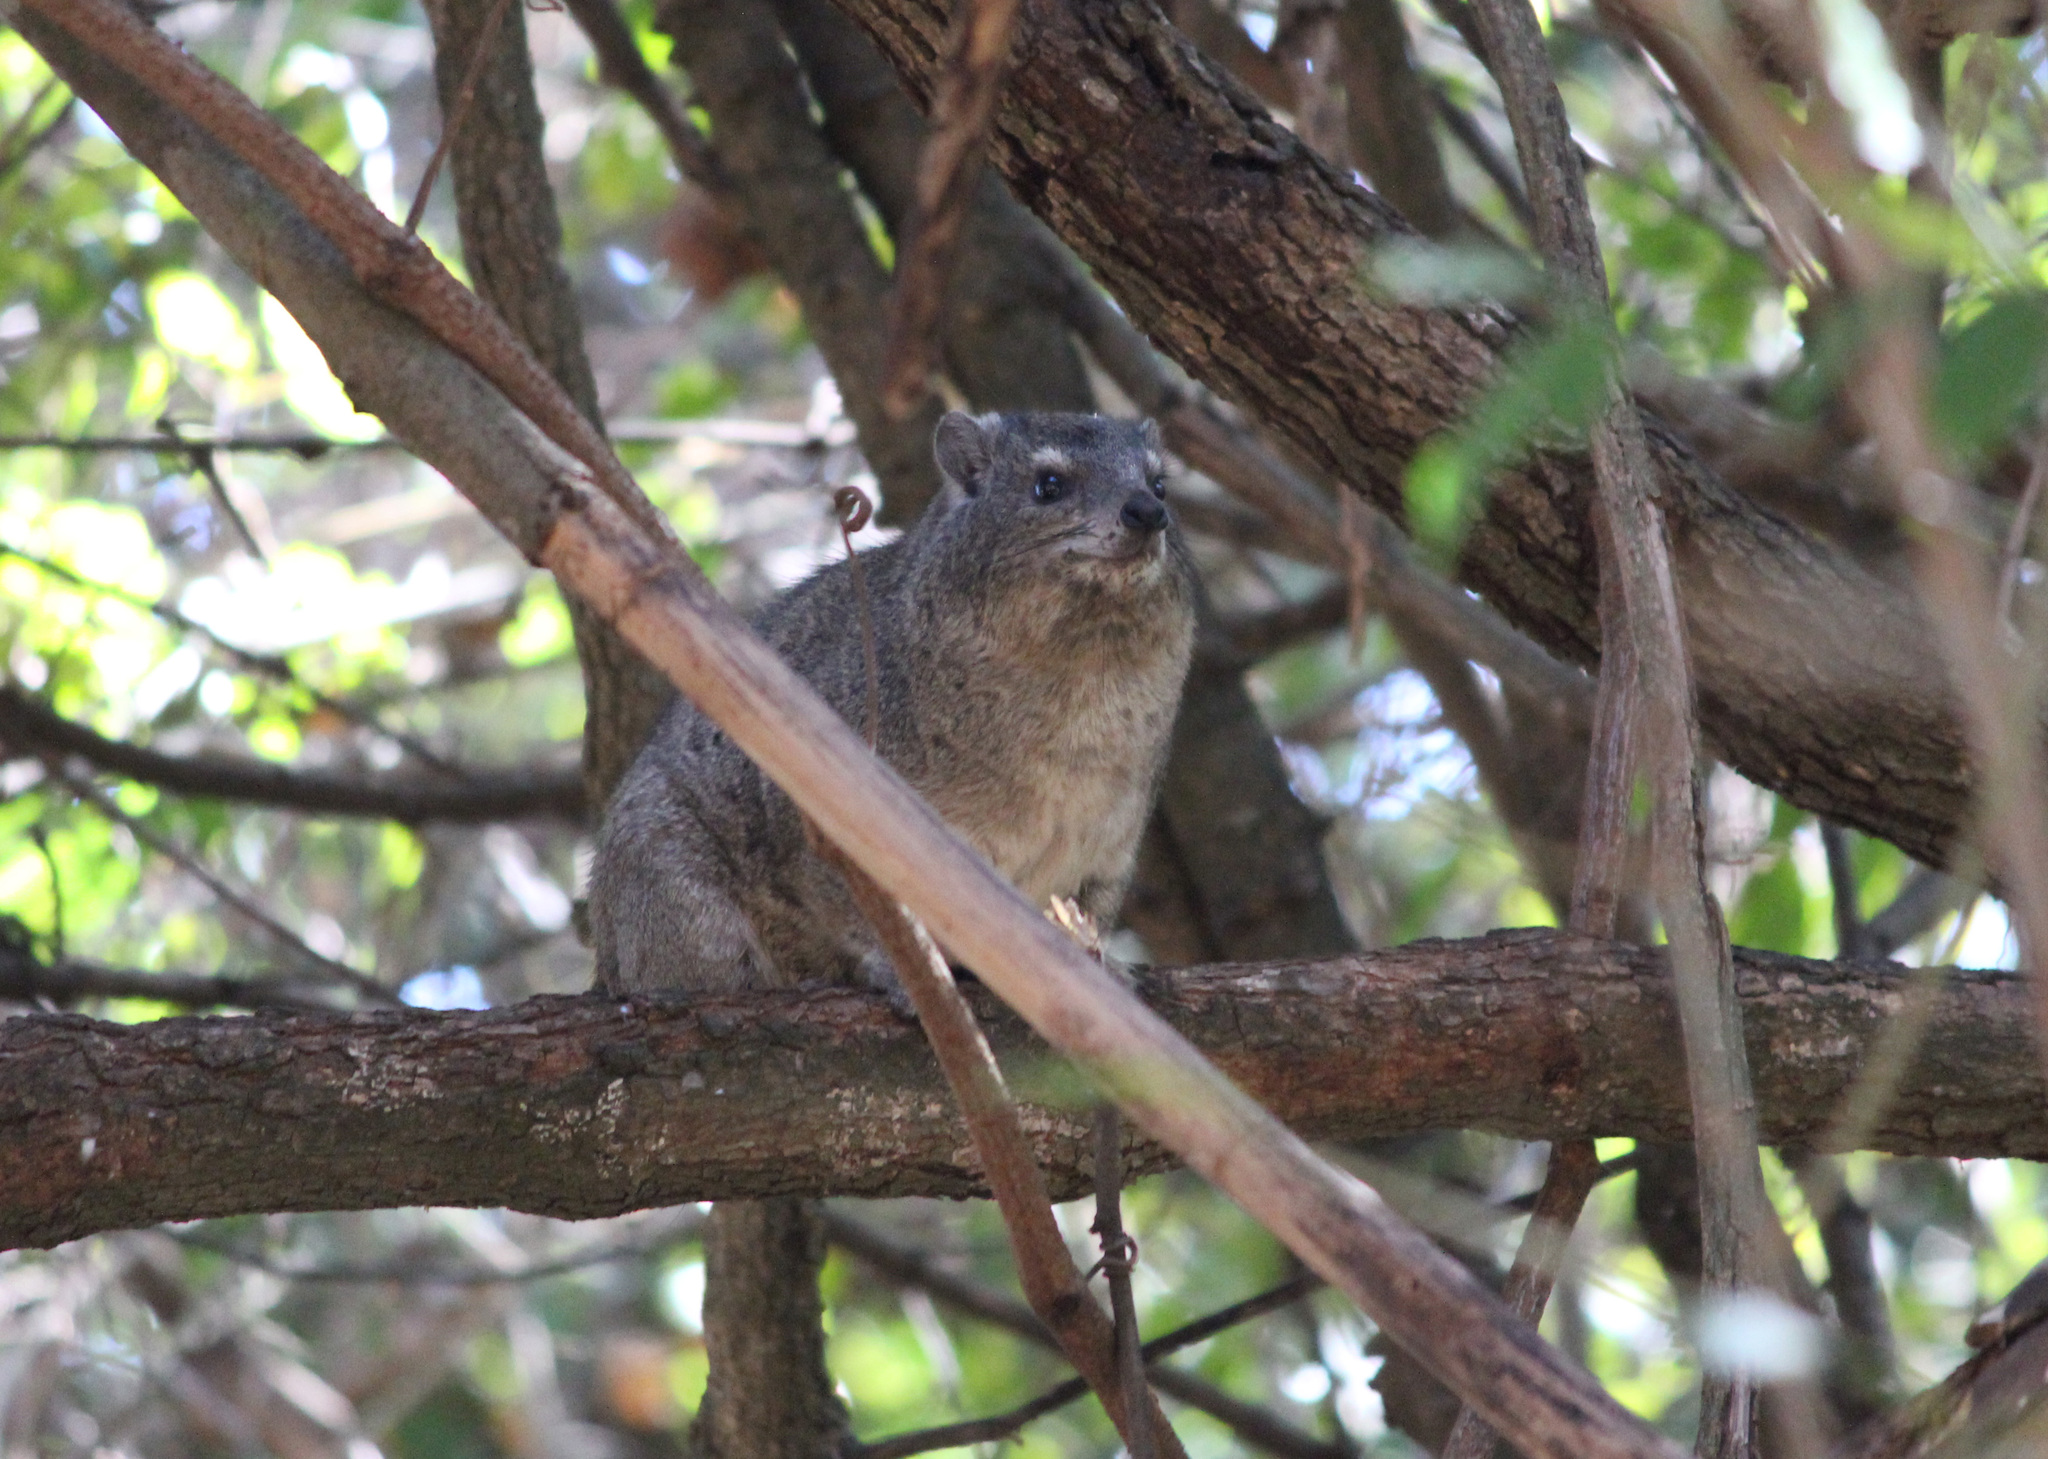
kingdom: Animalia
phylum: Chordata
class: Mammalia
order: Hyracoidea
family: Procaviidae
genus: Heterohyrax
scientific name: Heterohyrax brucei
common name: Bush hyrax
